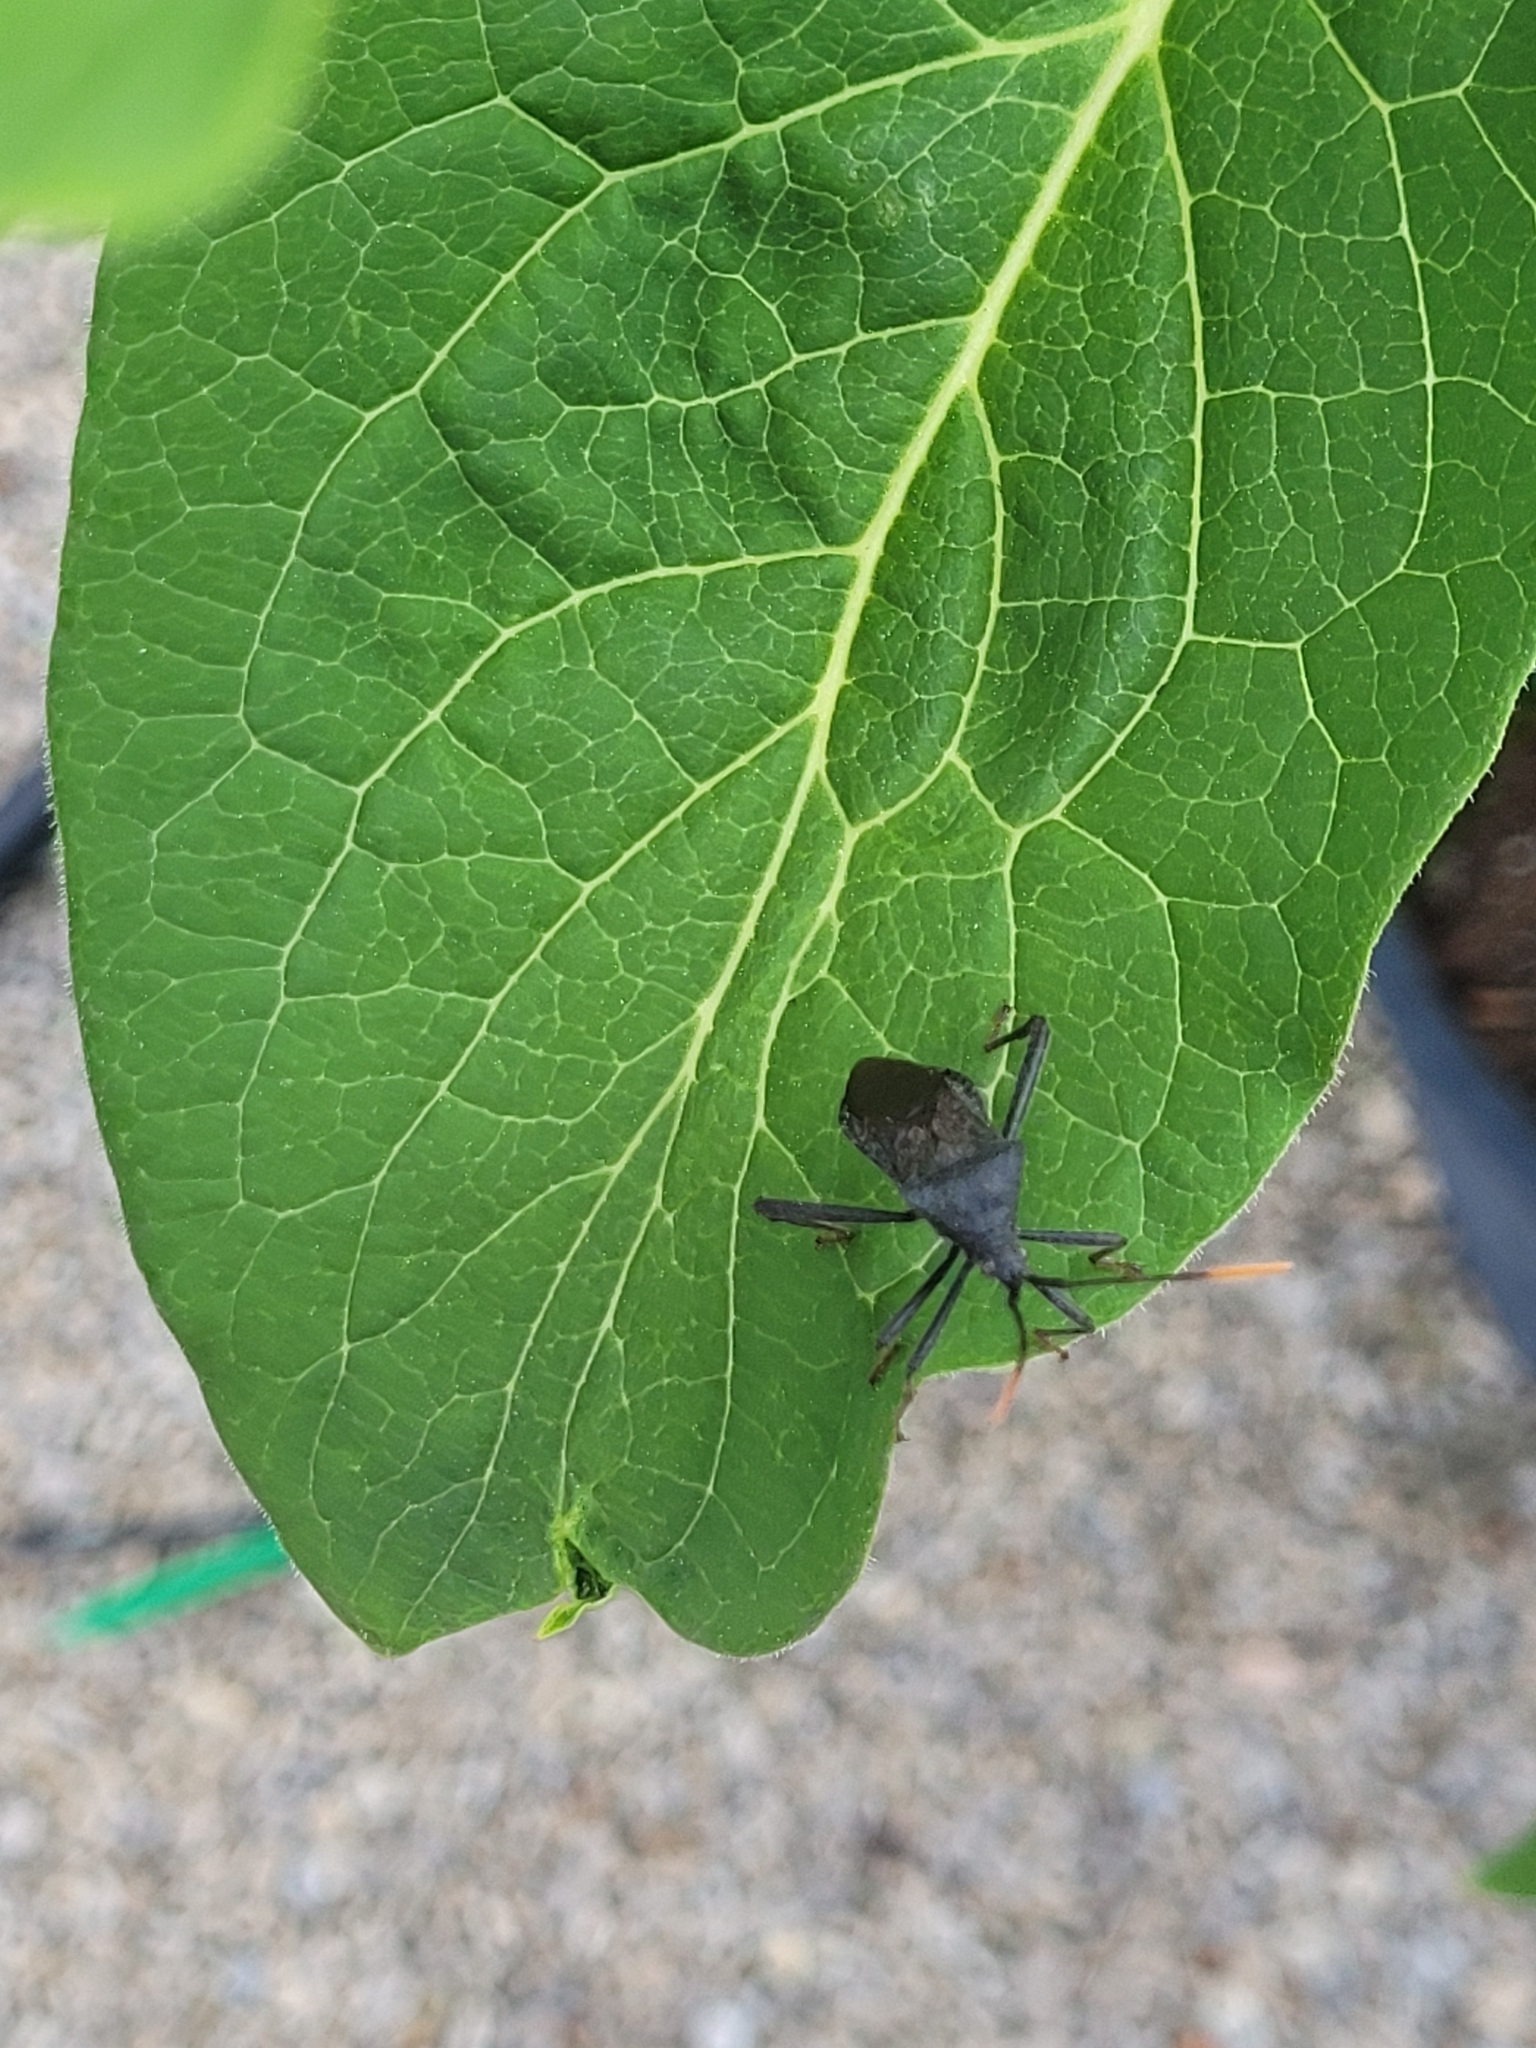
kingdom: Animalia
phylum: Arthropoda
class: Insecta
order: Hemiptera
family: Coreidae
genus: Acanthocephala
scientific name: Acanthocephala terminalis
